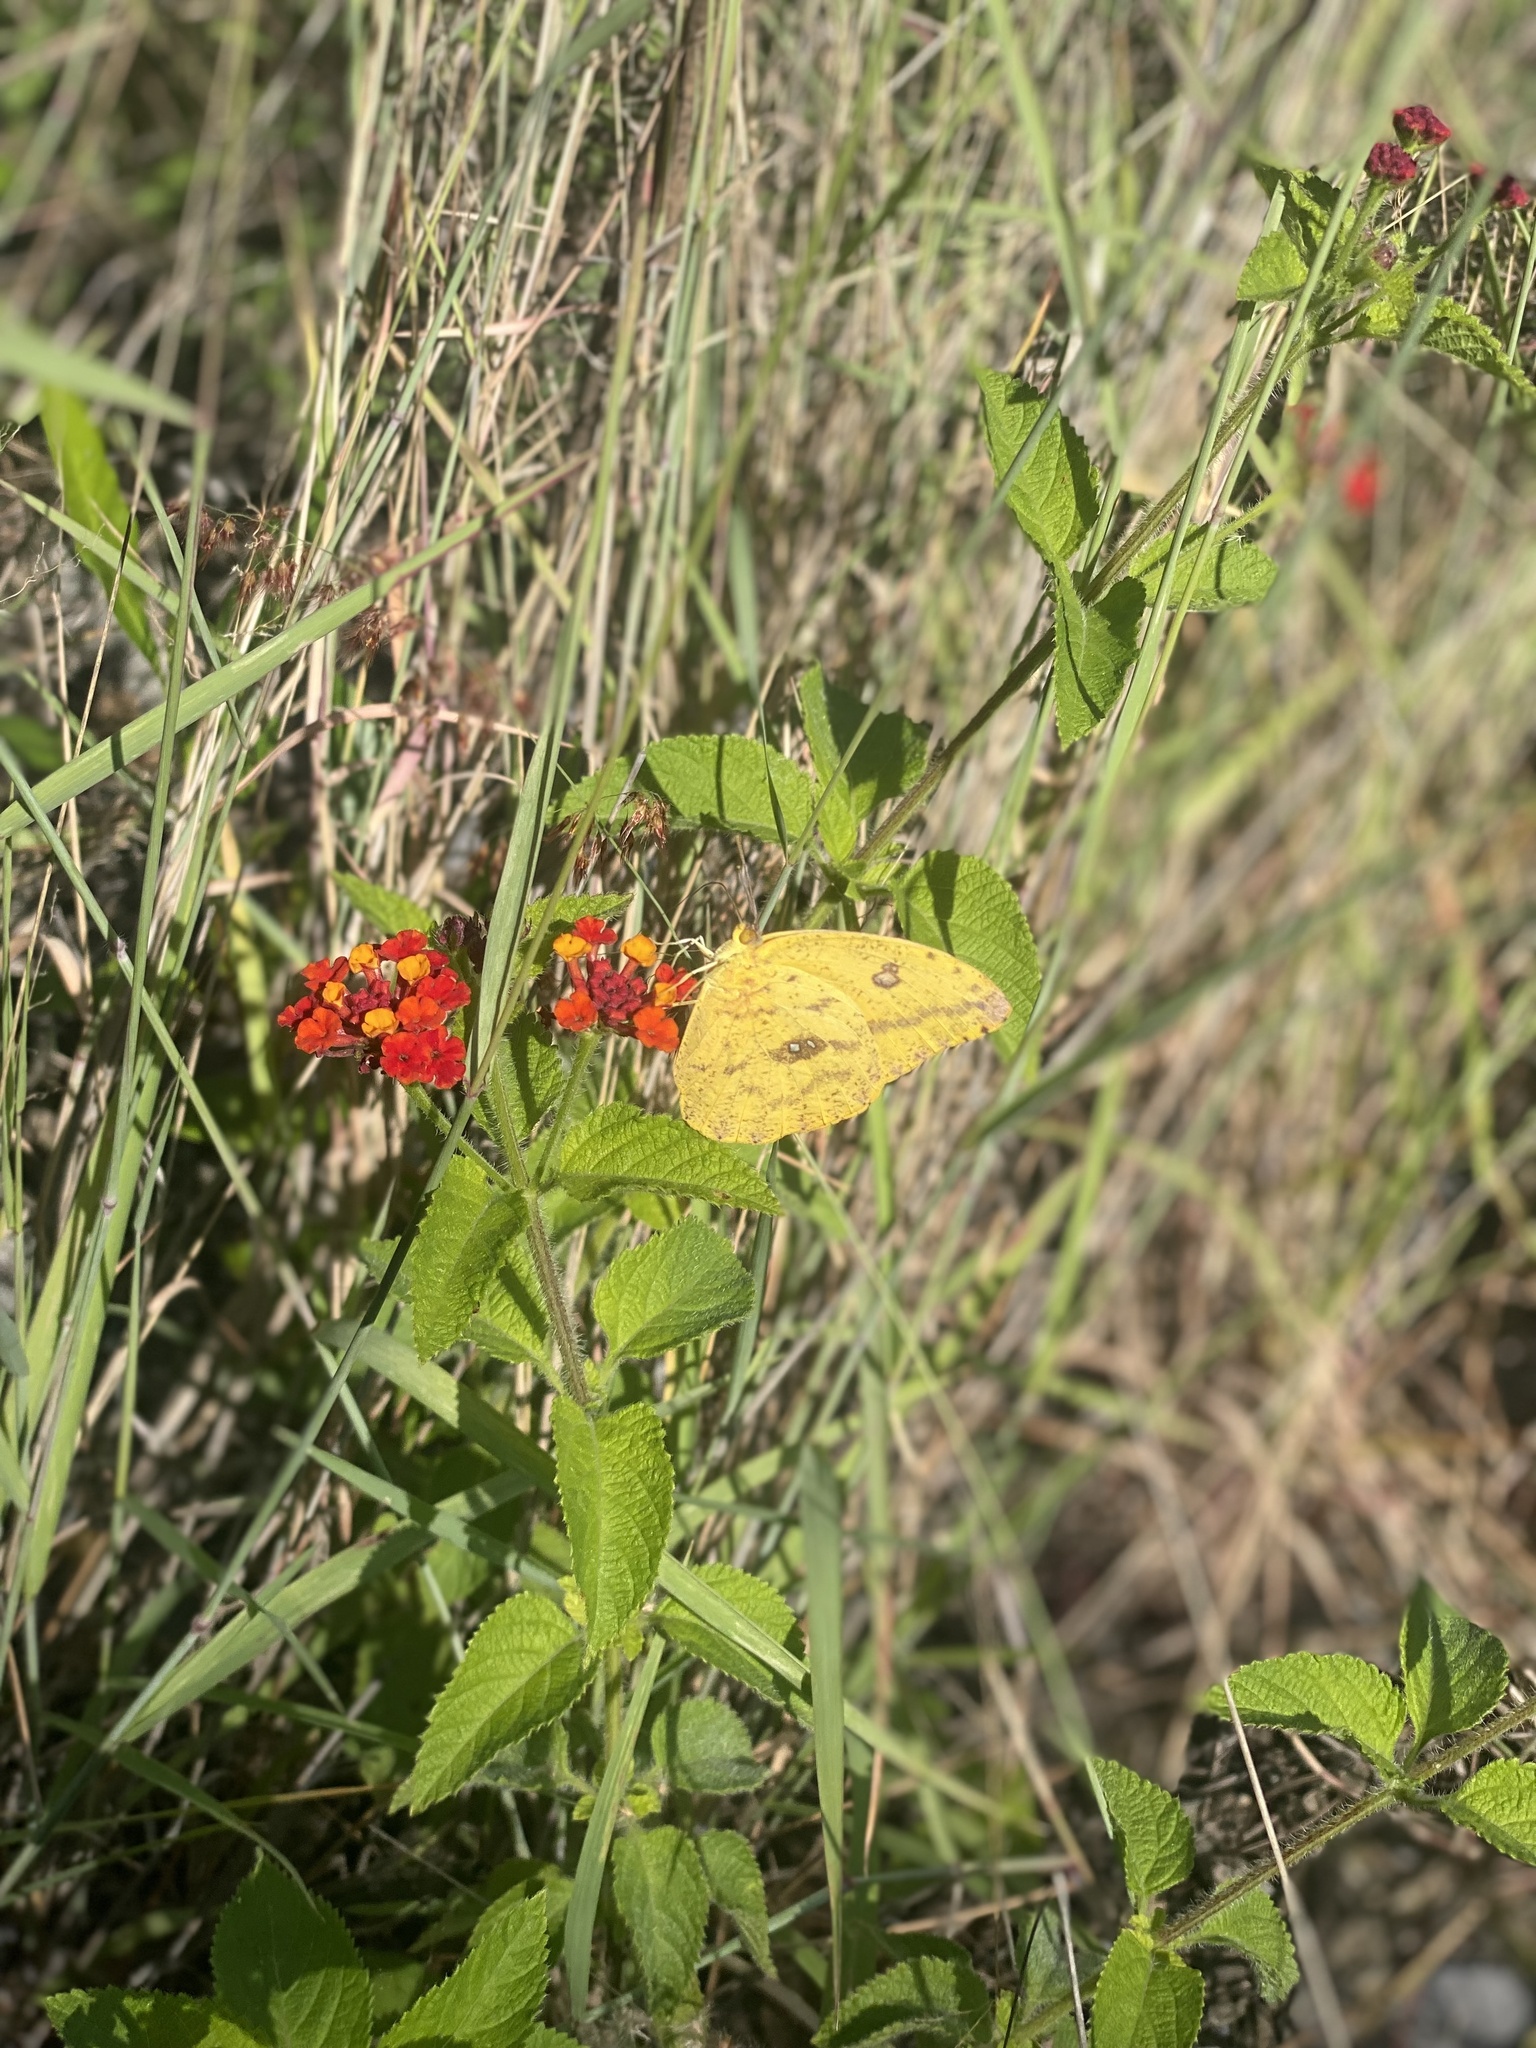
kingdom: Animalia
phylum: Arthropoda
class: Insecta
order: Lepidoptera
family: Pieridae
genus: Phoebis
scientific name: Phoebis agarithe
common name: Large orange sulphur
